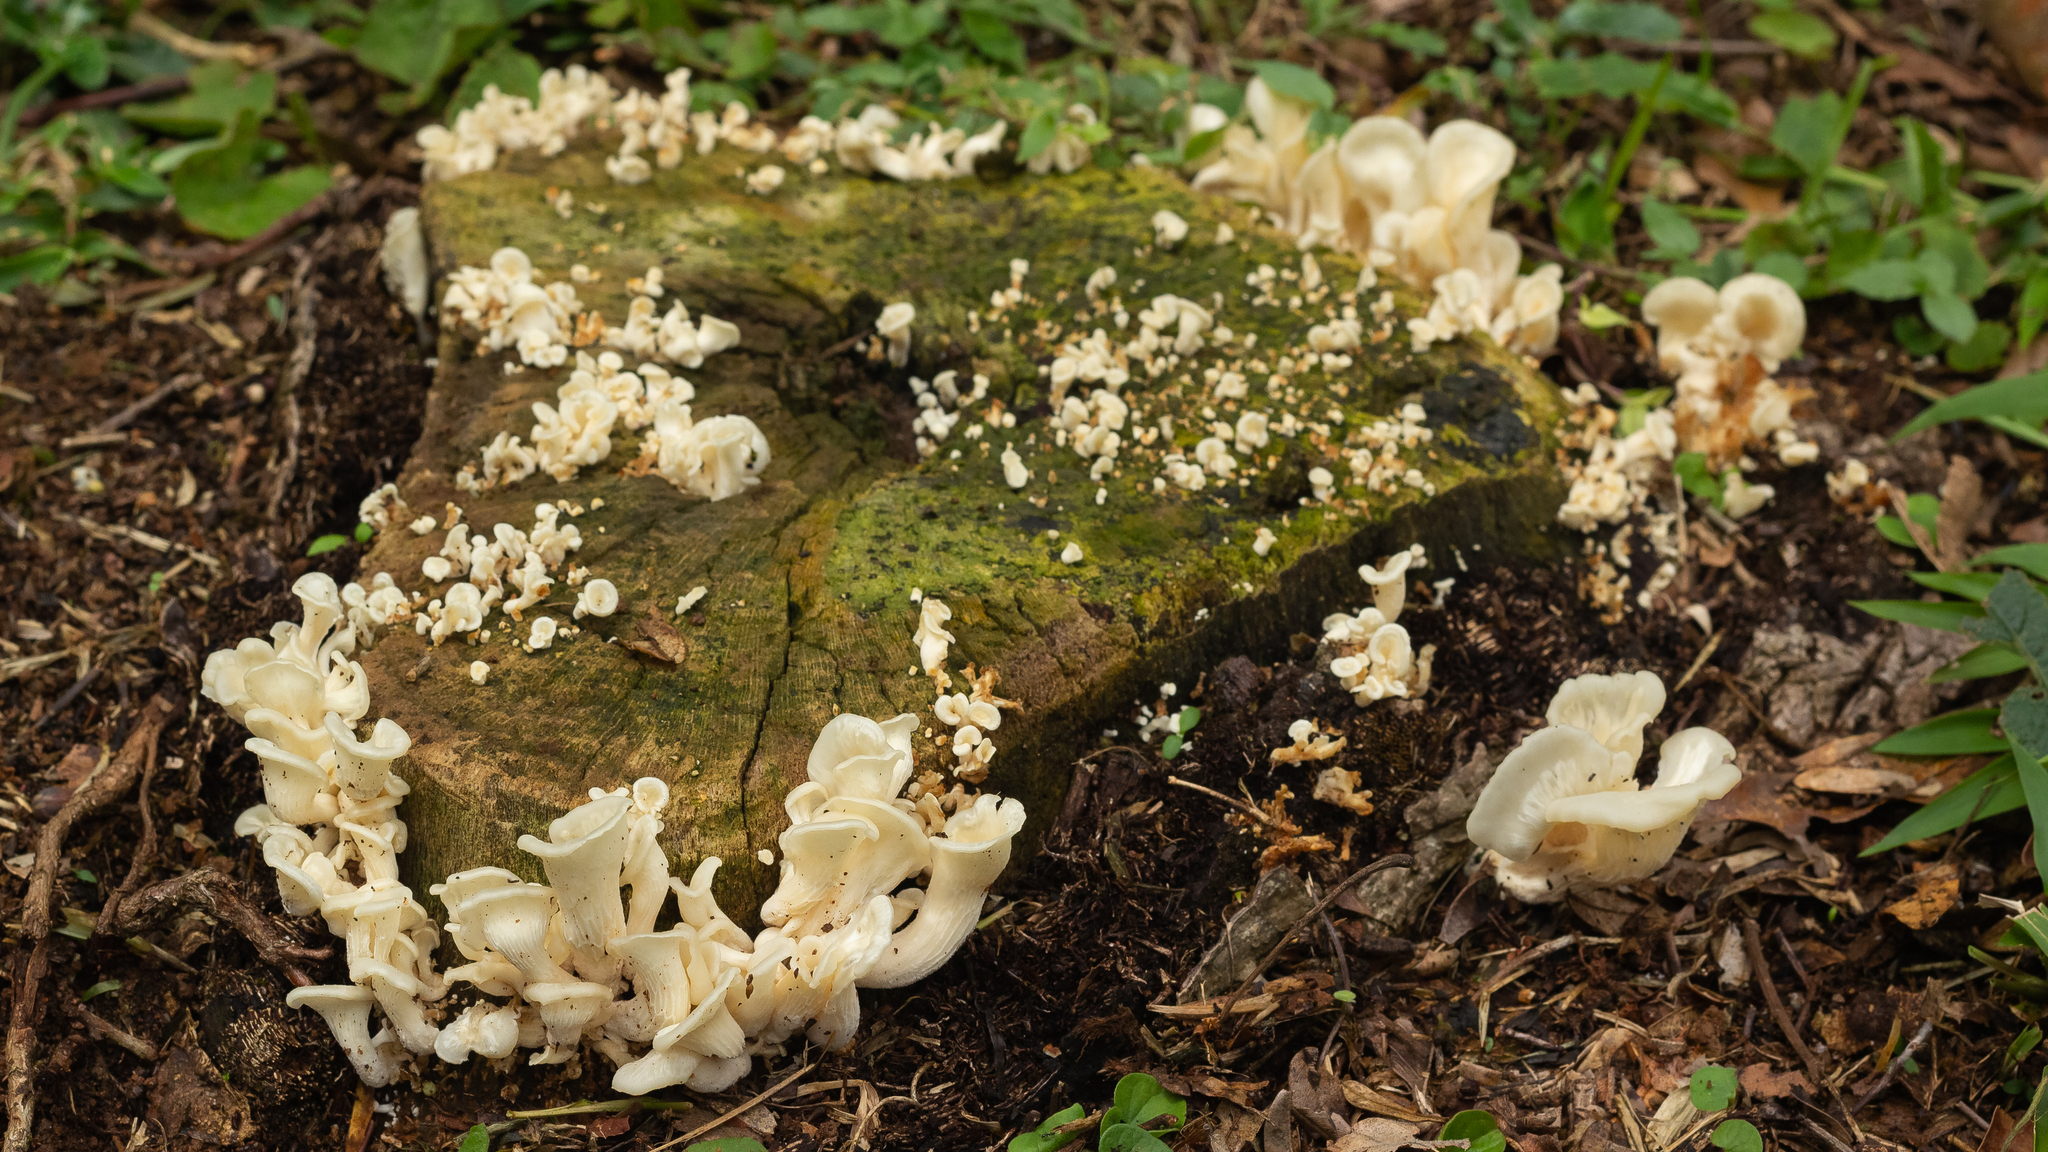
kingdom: Fungi
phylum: Basidiomycota
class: Agaricomycetes
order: Polyporales
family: Polyporaceae
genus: Favolus
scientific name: Favolus tenuiculus
